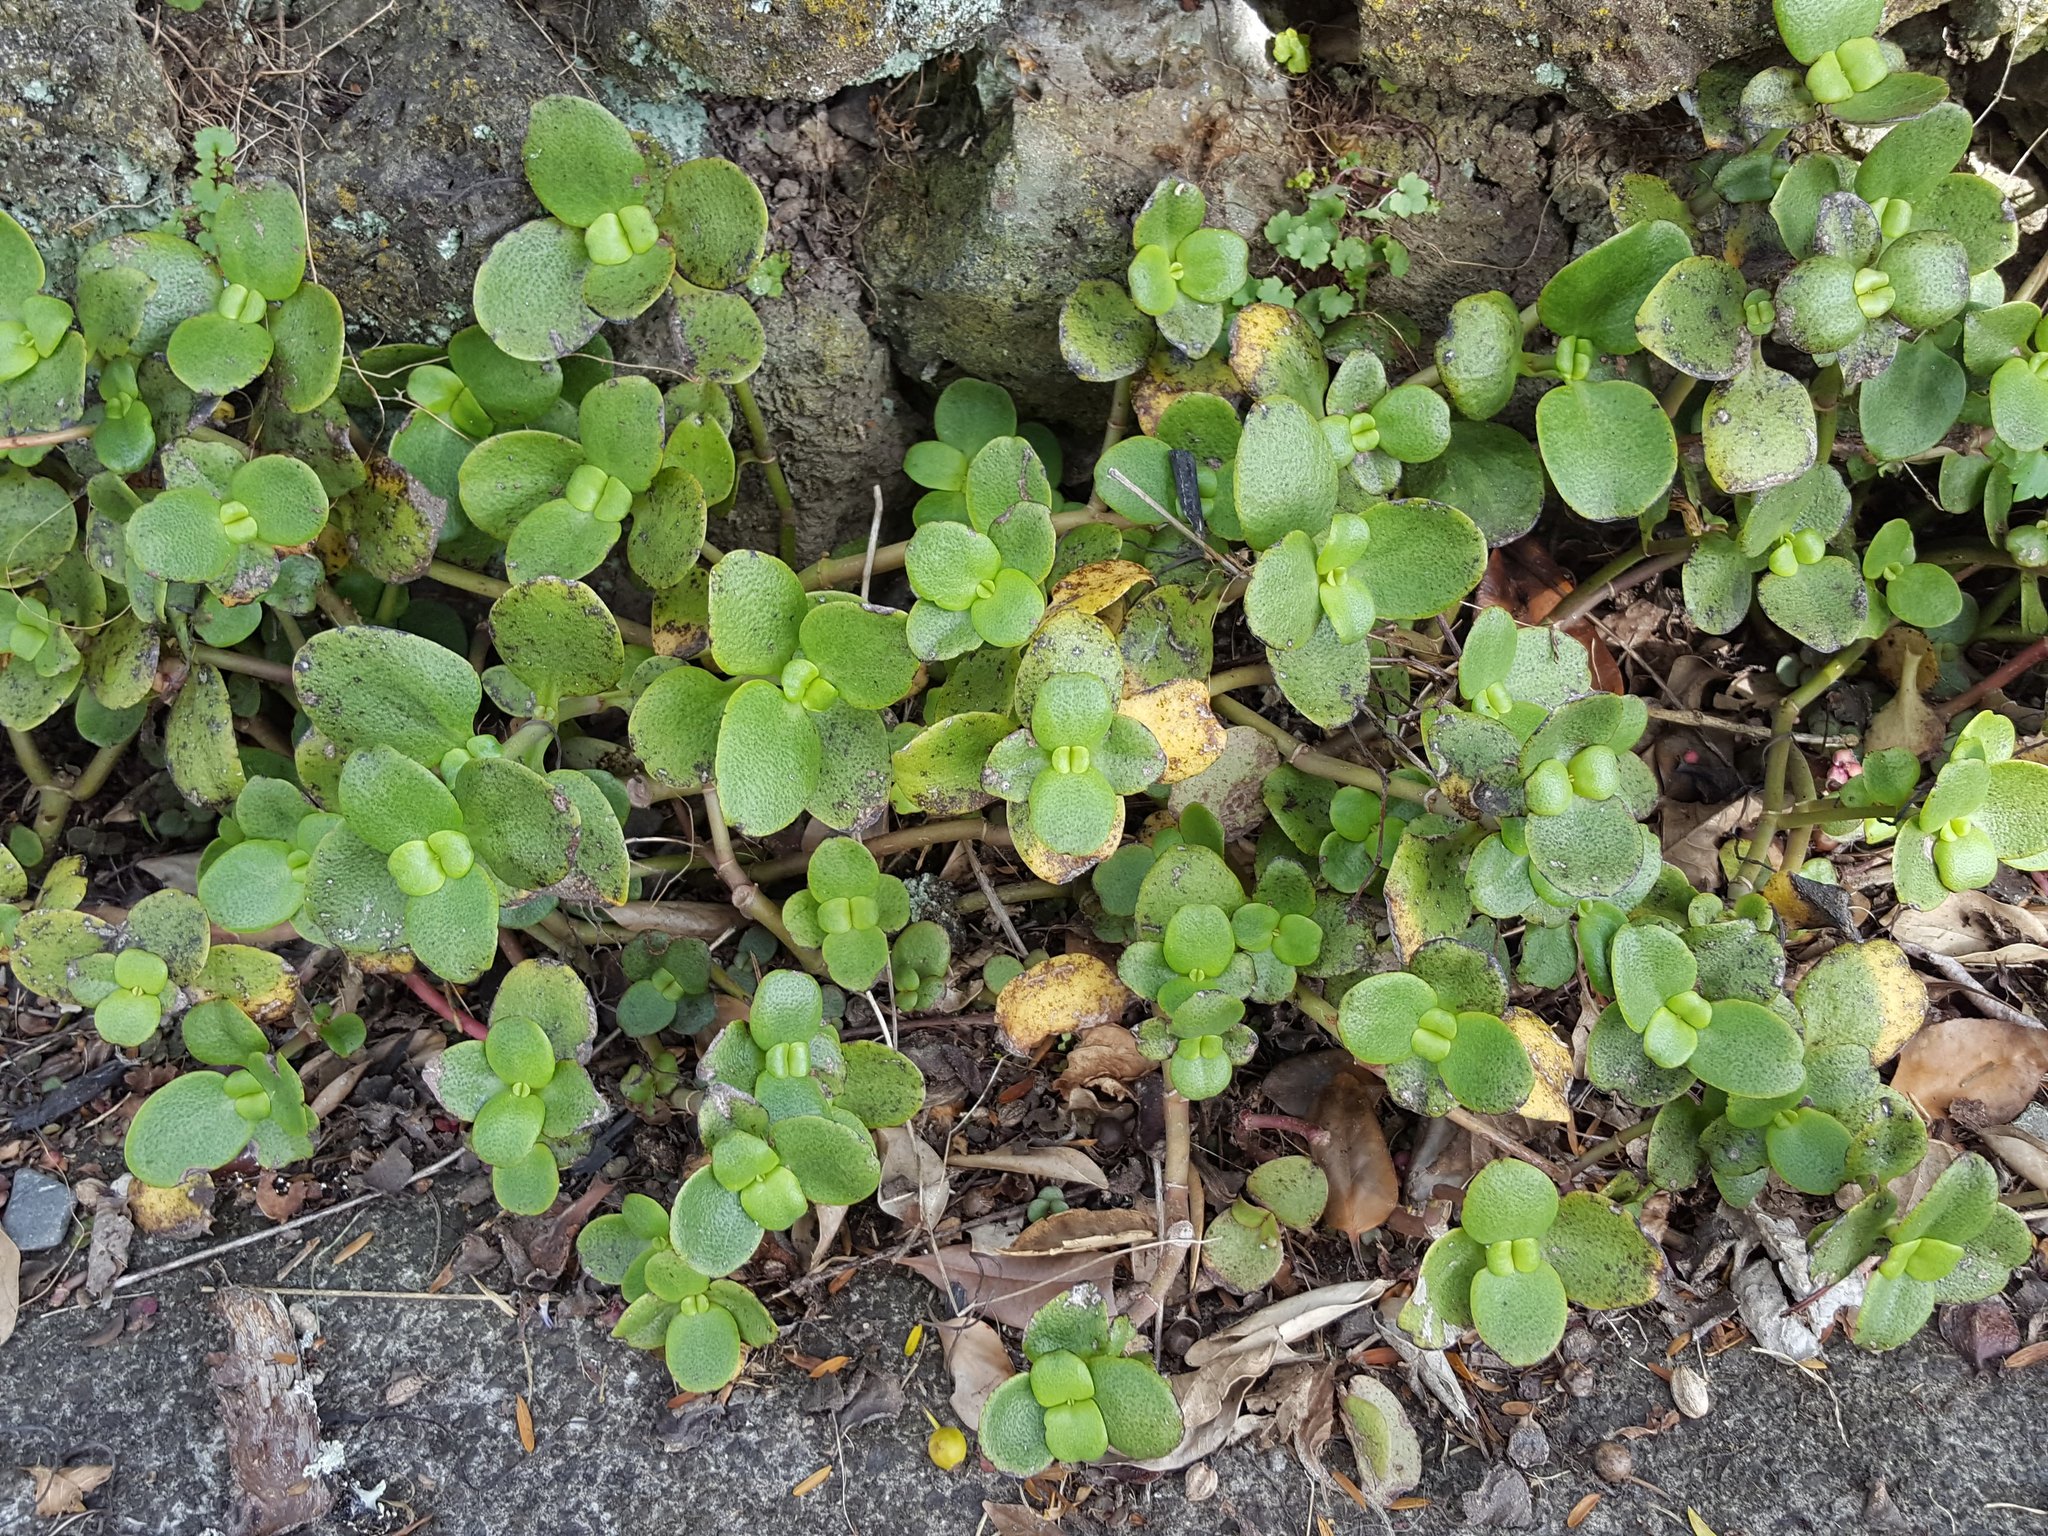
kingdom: Plantae
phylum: Tracheophyta
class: Magnoliopsida
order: Saxifragales
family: Crassulaceae
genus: Crassula
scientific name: Crassula multicava
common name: Cape province pygmyweed
